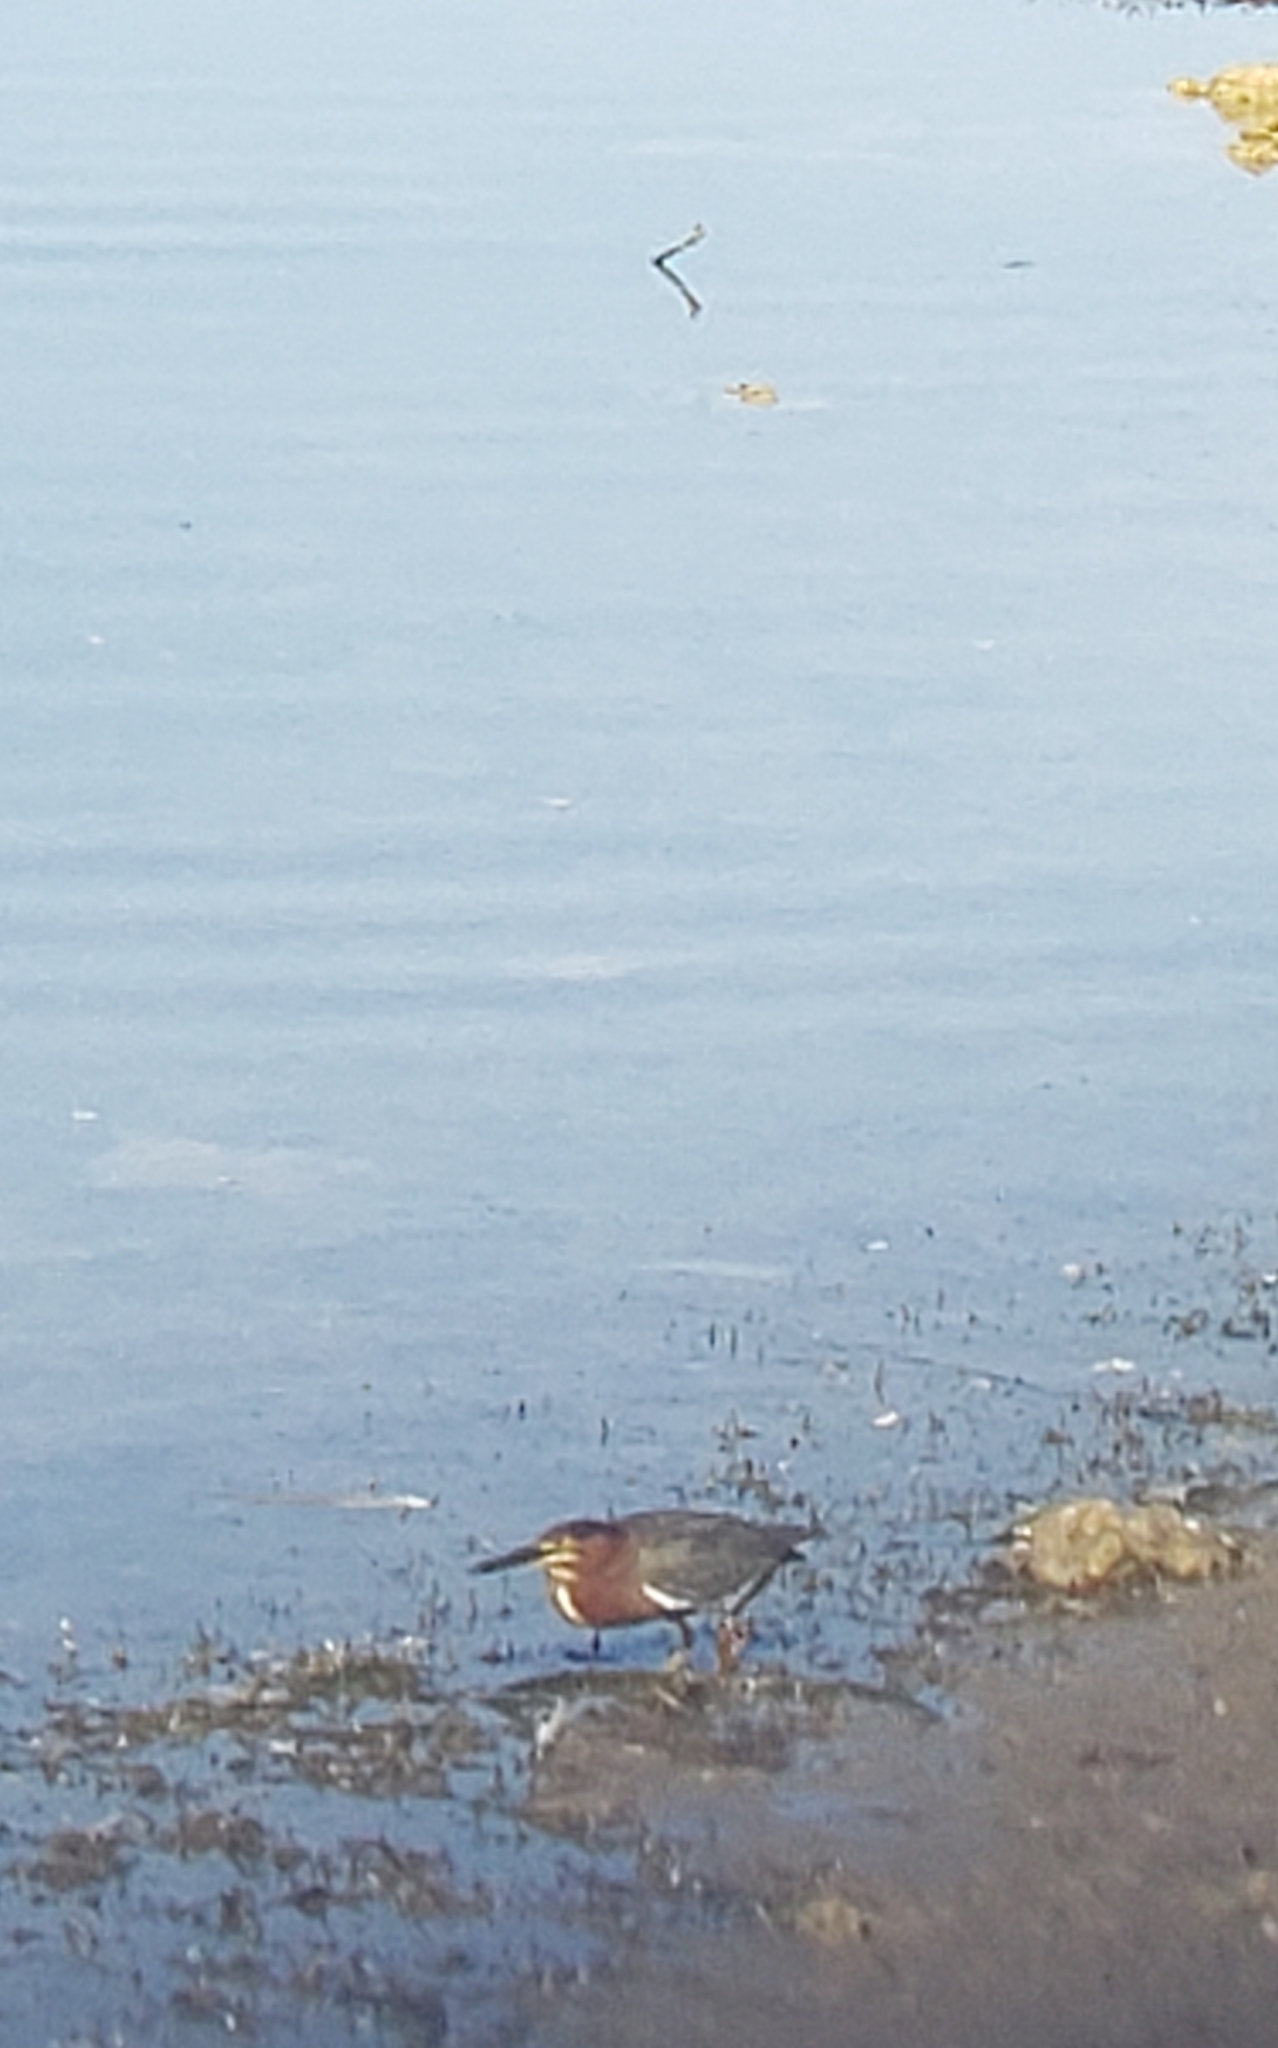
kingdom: Animalia
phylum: Chordata
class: Aves
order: Pelecaniformes
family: Ardeidae
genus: Butorides
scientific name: Butorides virescens
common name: Green heron
